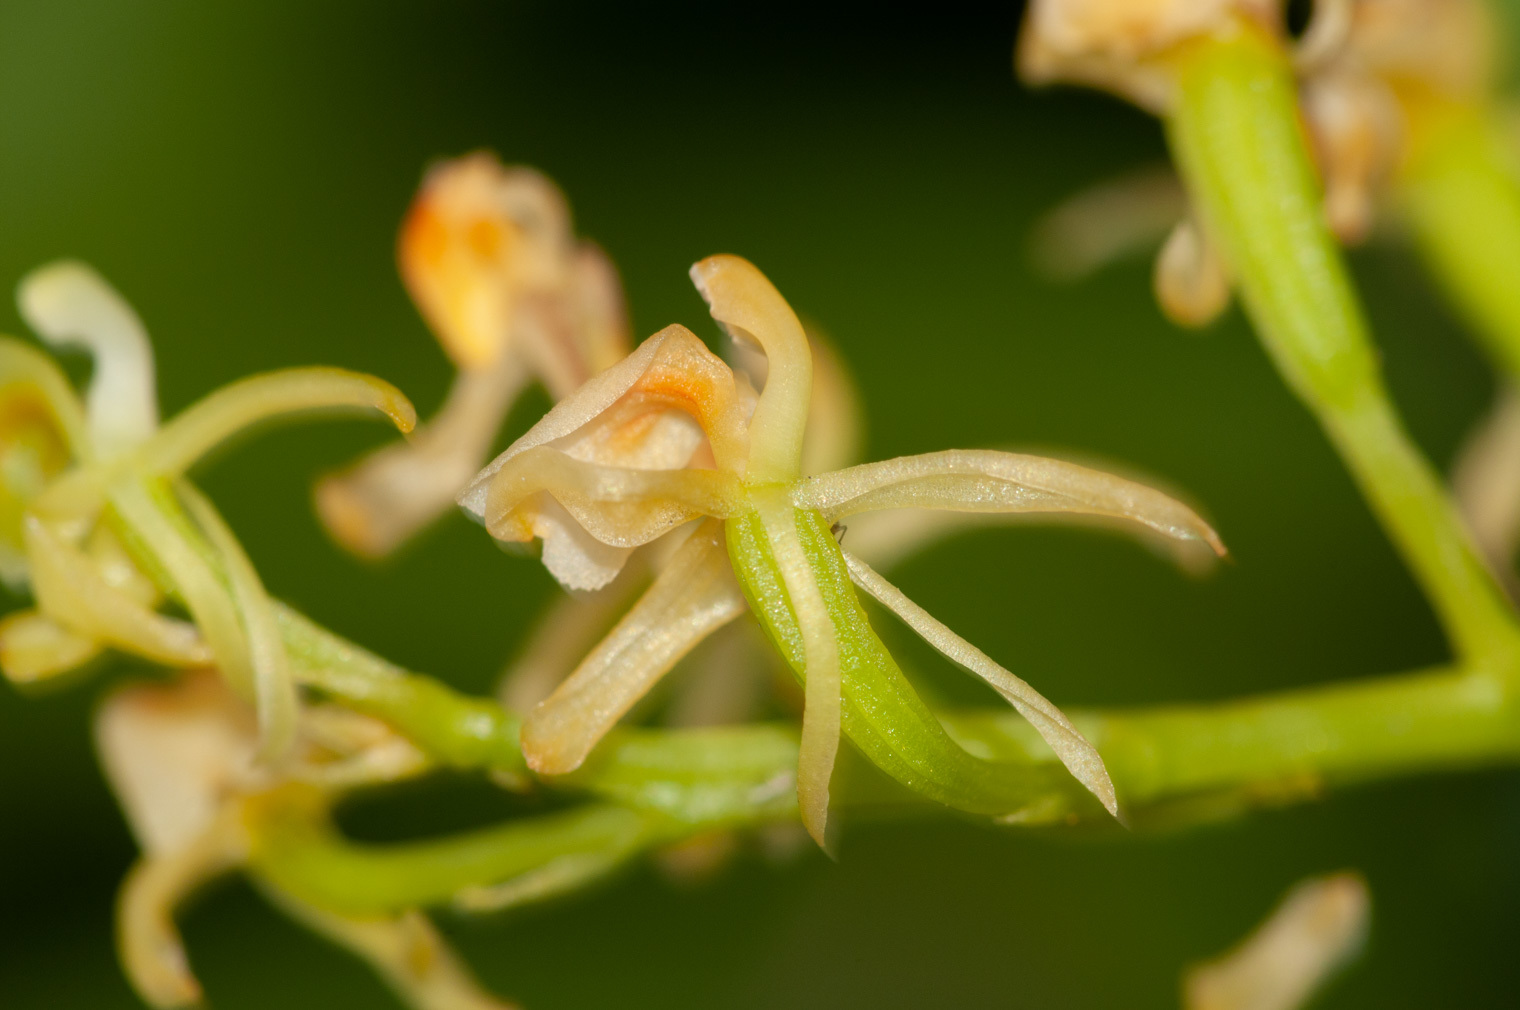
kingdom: Plantae
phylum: Tracheophyta
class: Liliopsida
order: Asparagales
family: Orchidaceae
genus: Liparis
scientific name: Liparis reflexa
